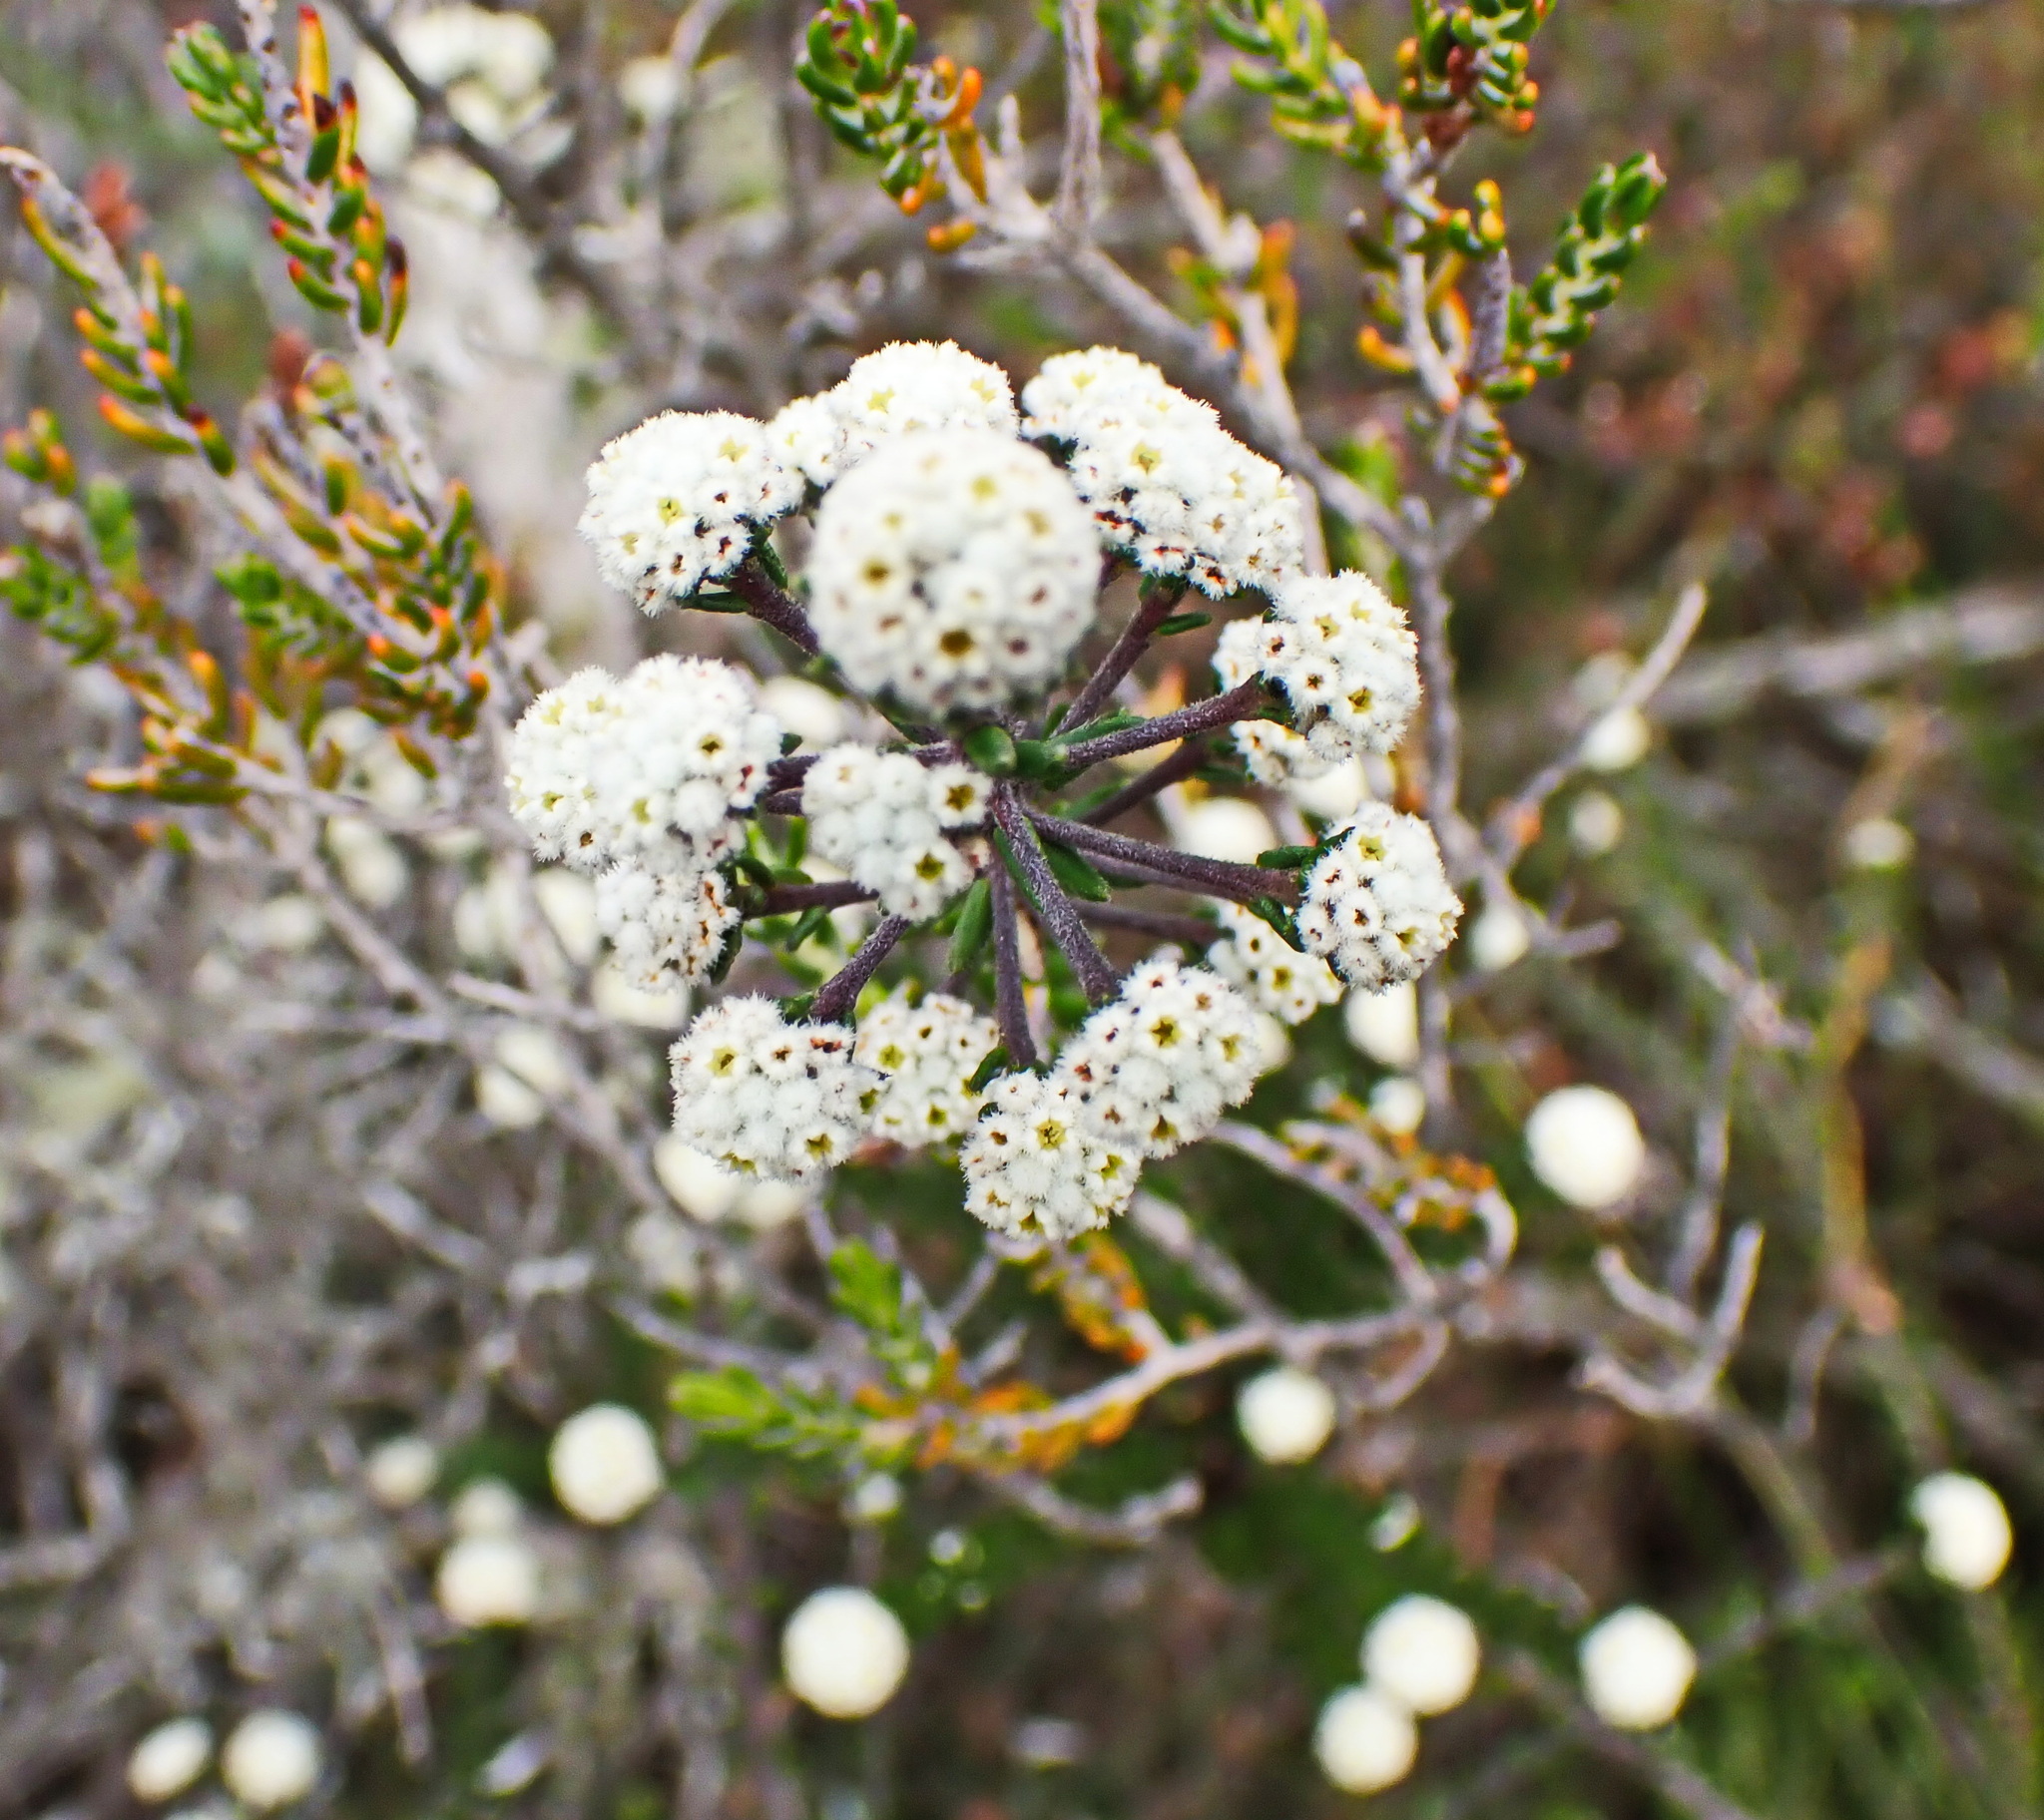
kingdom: Plantae
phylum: Tracheophyta
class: Magnoliopsida
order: Rosales
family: Rhamnaceae
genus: Phylica
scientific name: Phylica laevigata
